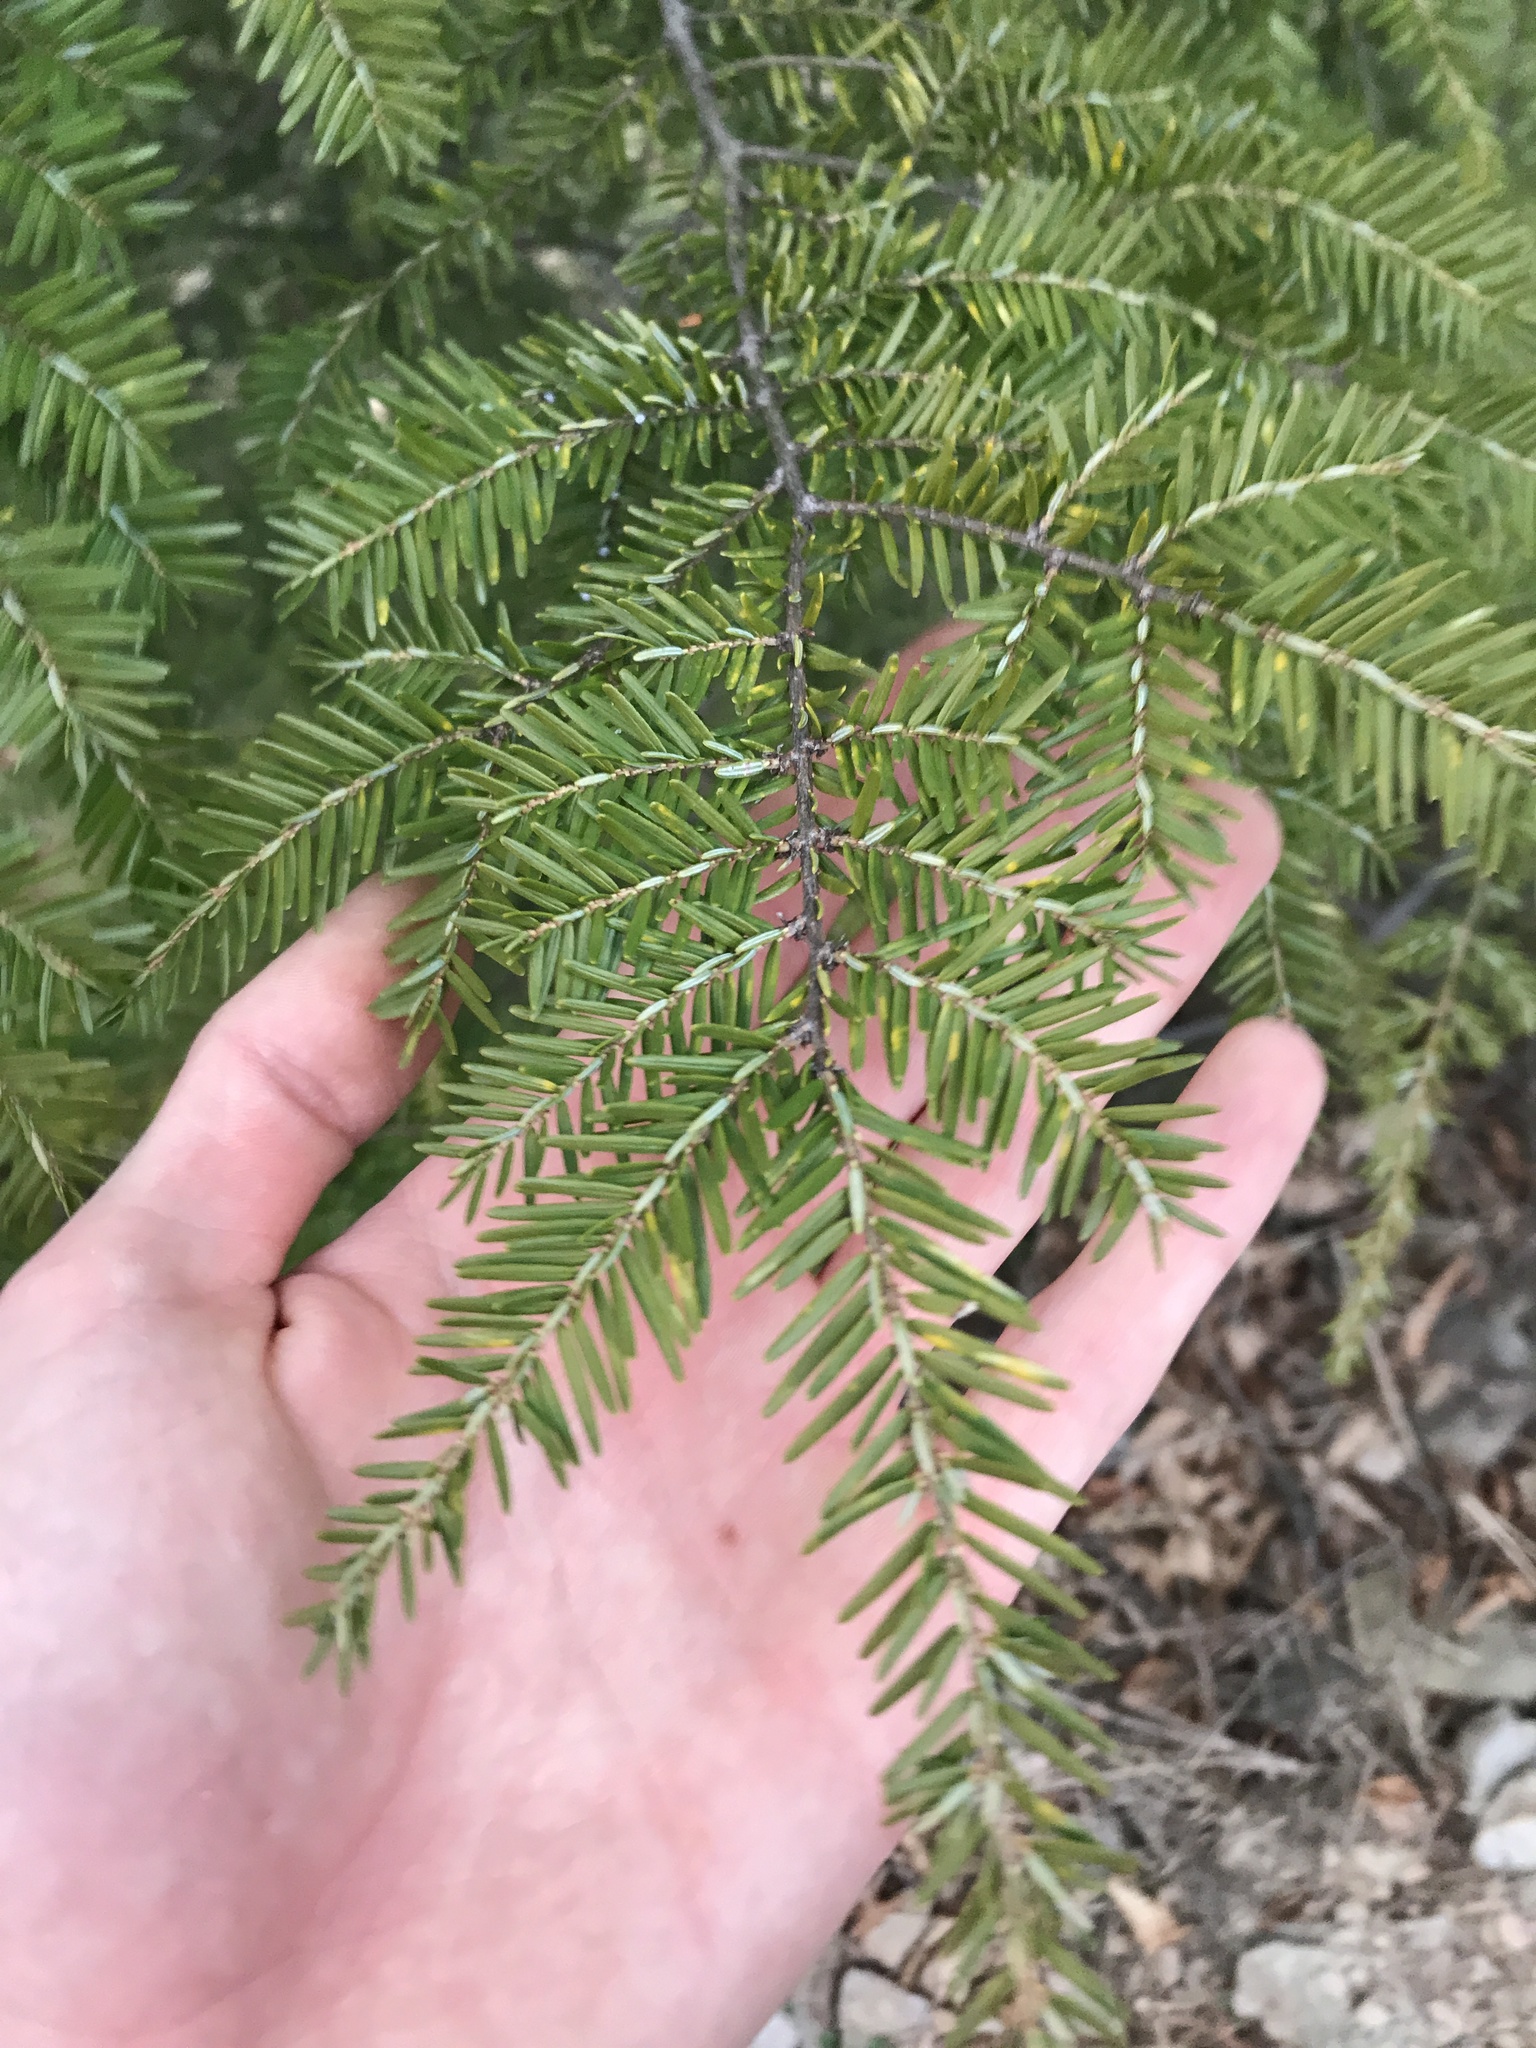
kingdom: Plantae
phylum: Tracheophyta
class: Pinopsida
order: Pinales
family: Pinaceae
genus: Tsuga
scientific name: Tsuga canadensis
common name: Eastern hemlock
